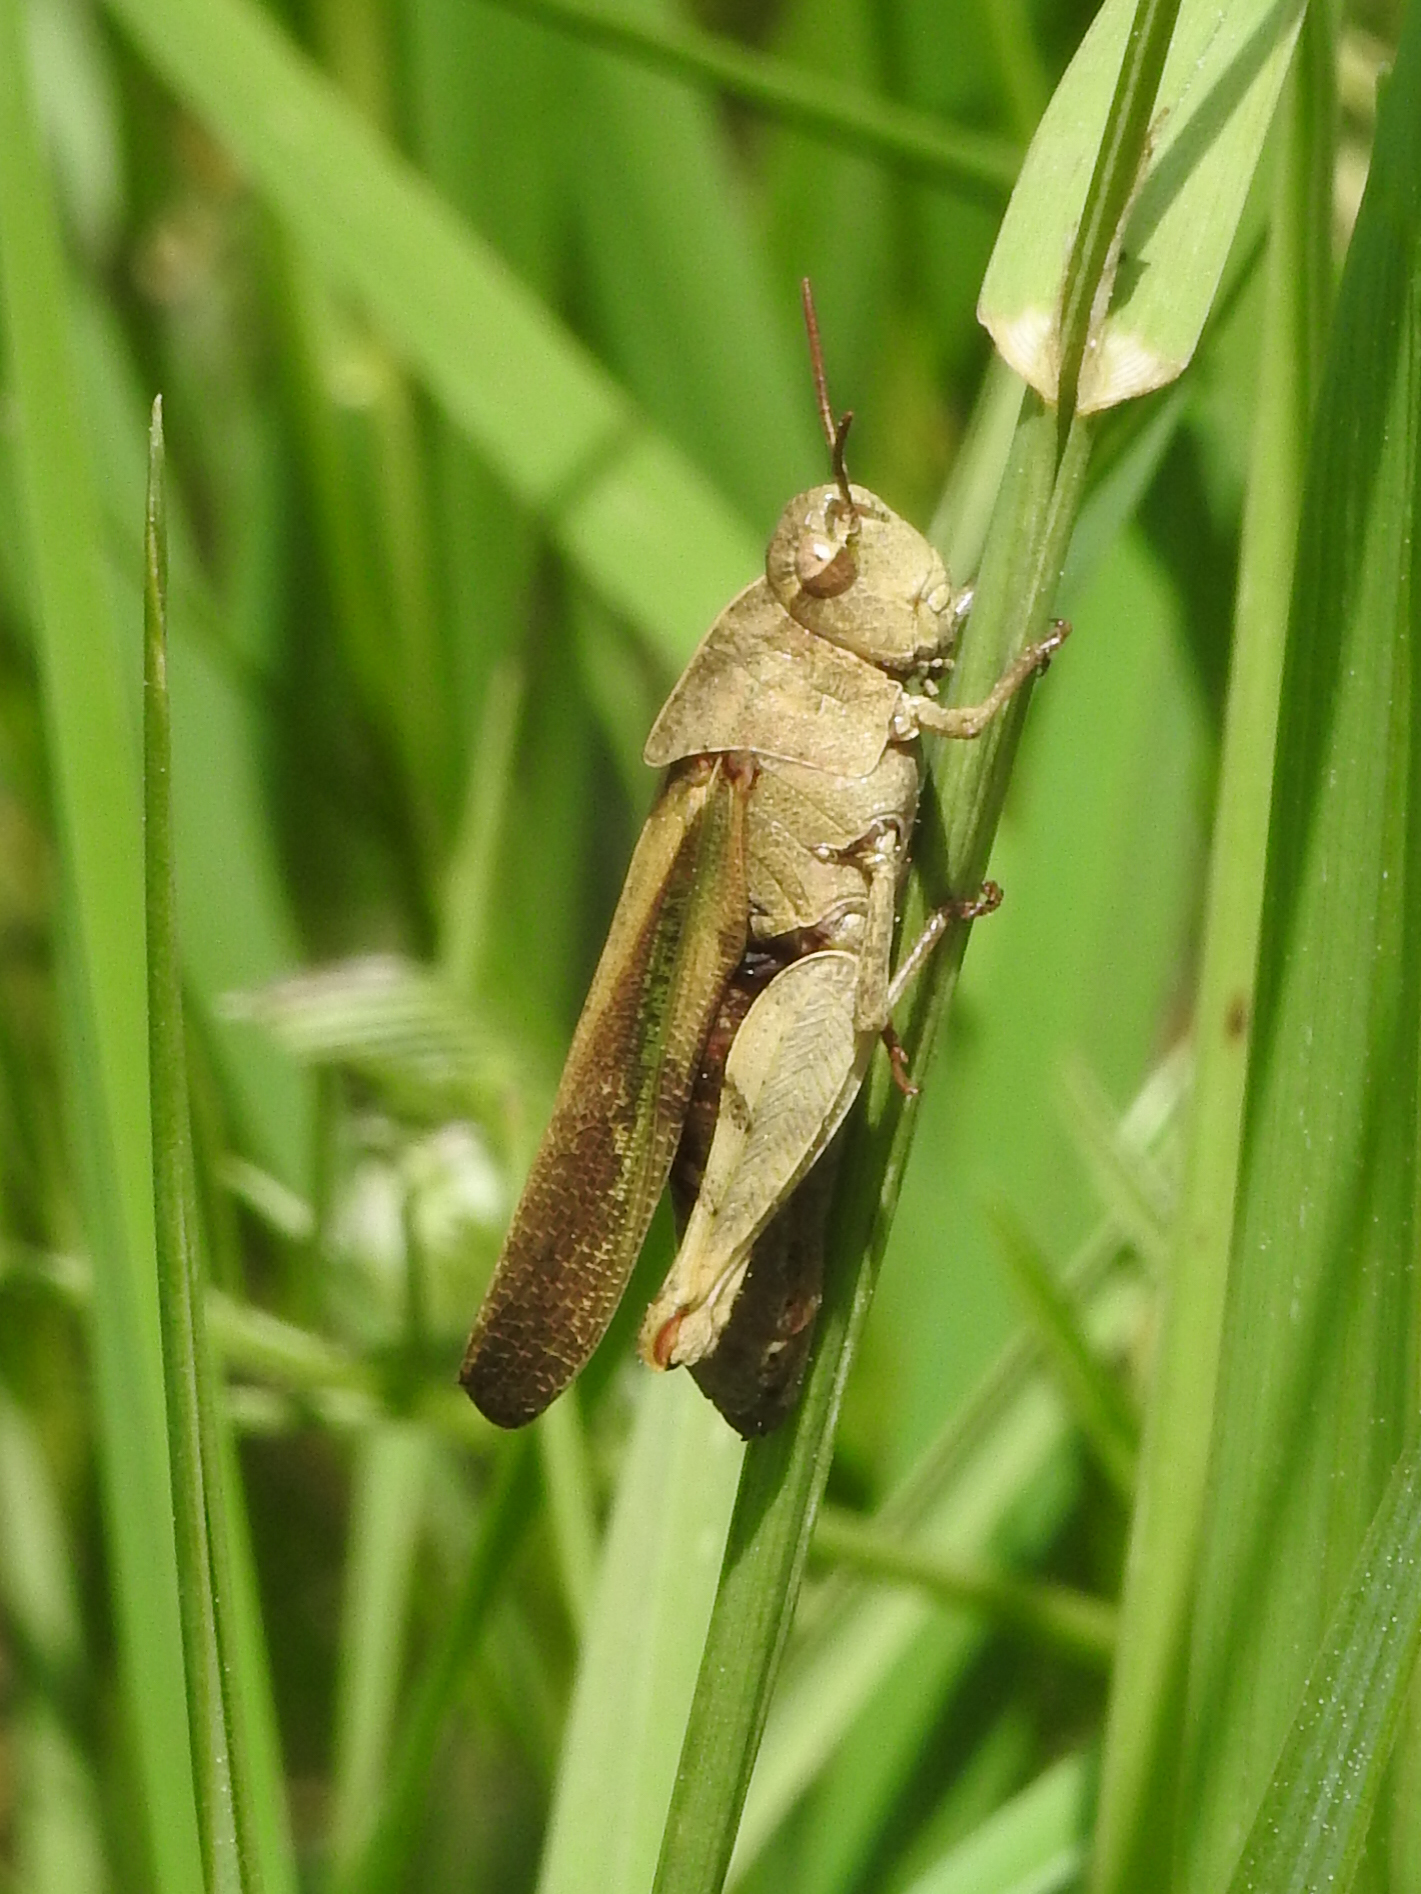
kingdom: Animalia
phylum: Arthropoda
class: Insecta
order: Orthoptera
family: Acrididae
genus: Chortophaga
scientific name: Chortophaga viridifasciata
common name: Green-striped grasshopper
